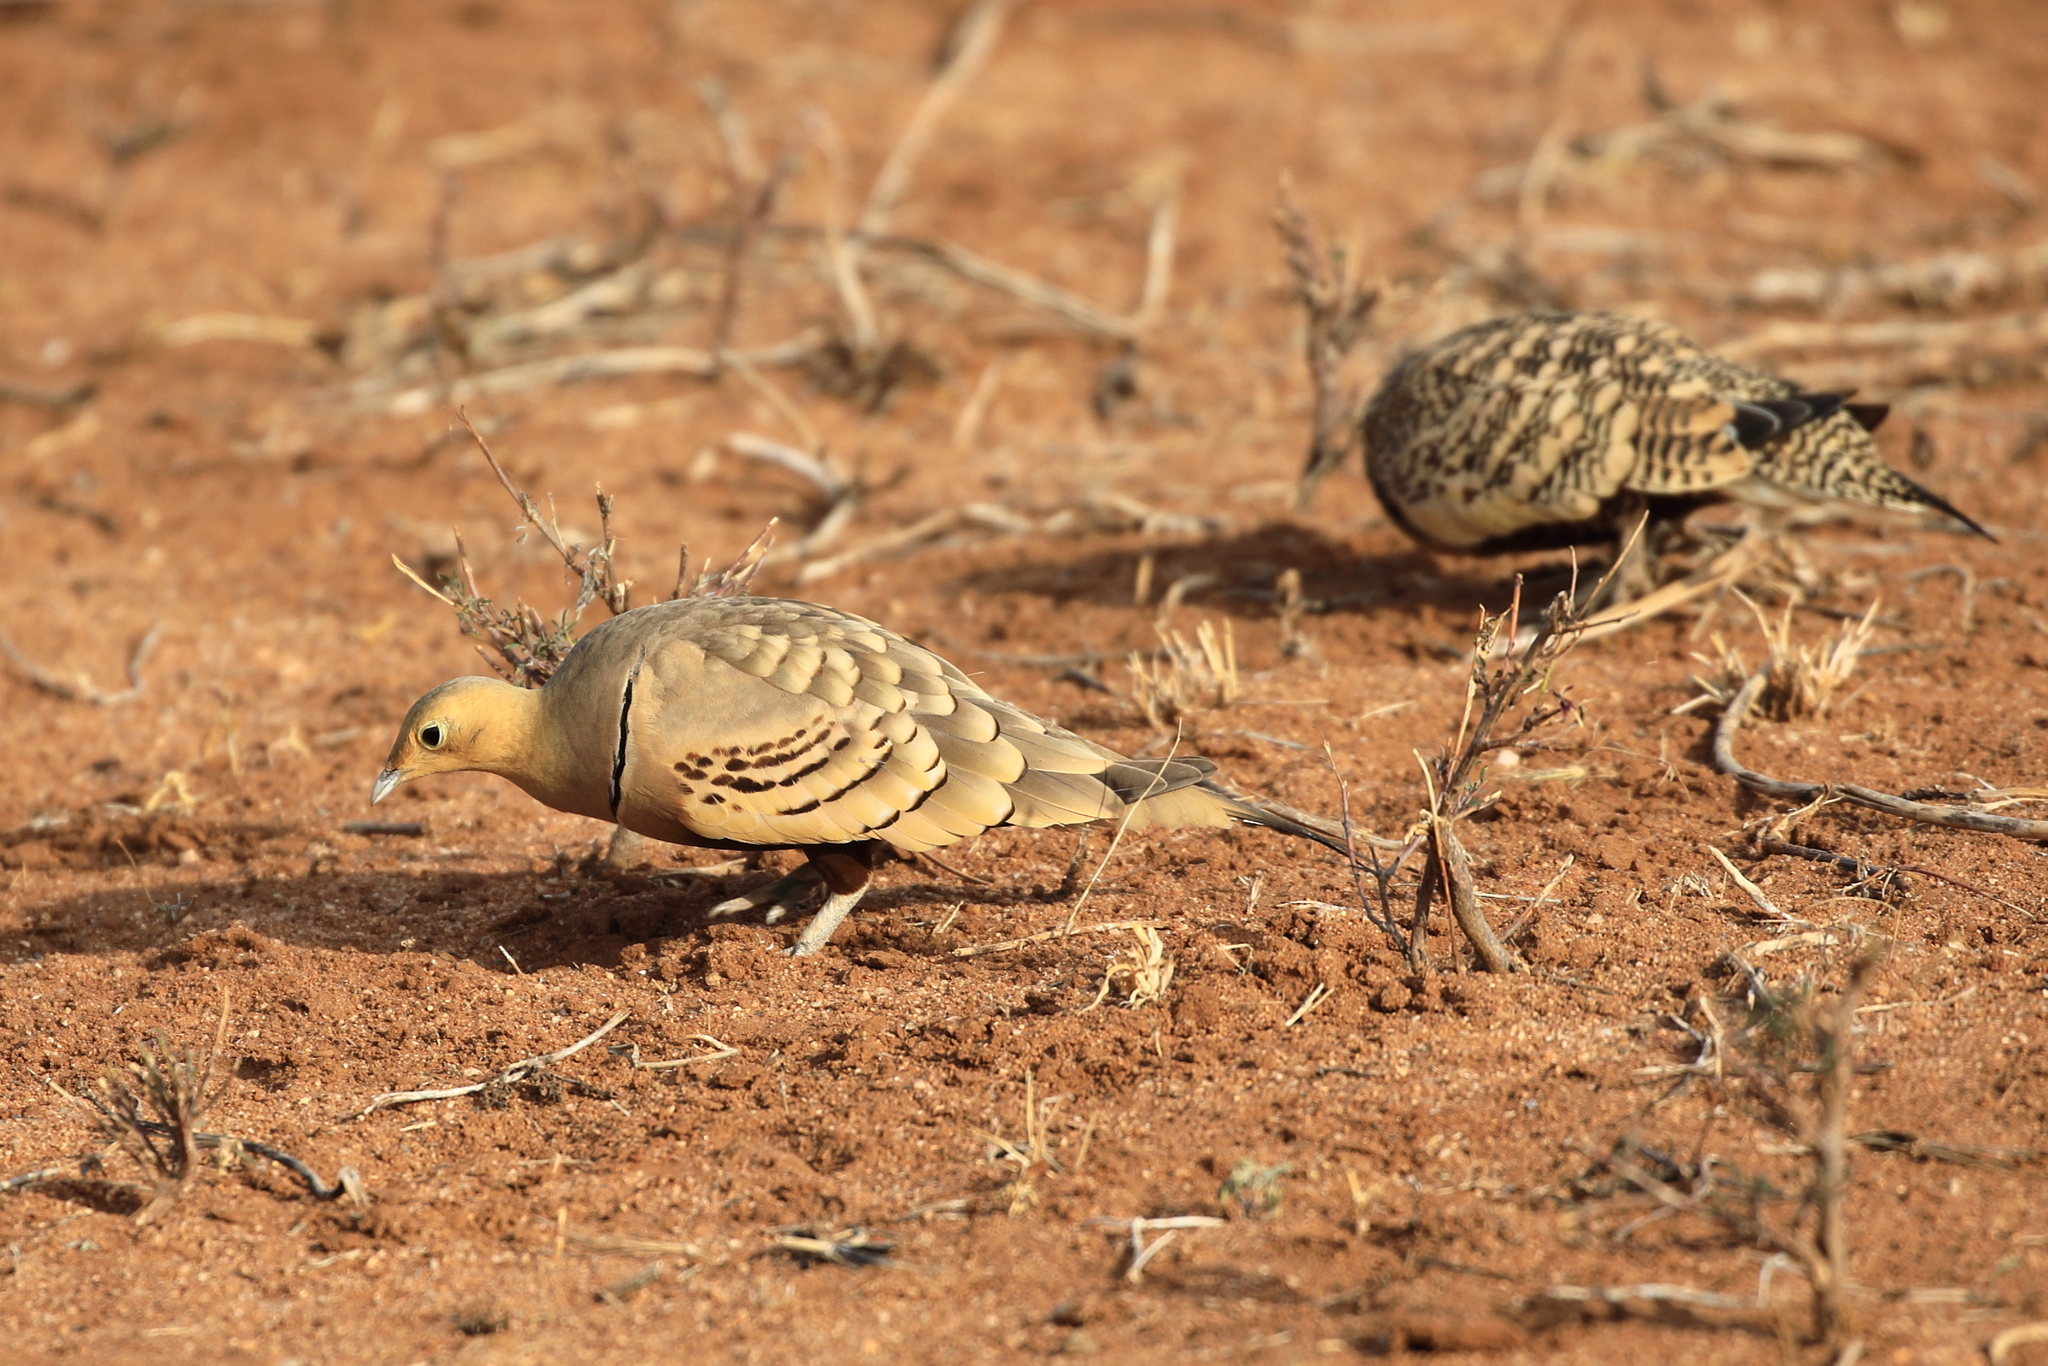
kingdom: Animalia
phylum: Chordata
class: Aves
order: Pteroclidiformes
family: Pteroclididae
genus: Pterocles
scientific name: Pterocles exustus
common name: Chestnut-bellied sandgrouse
